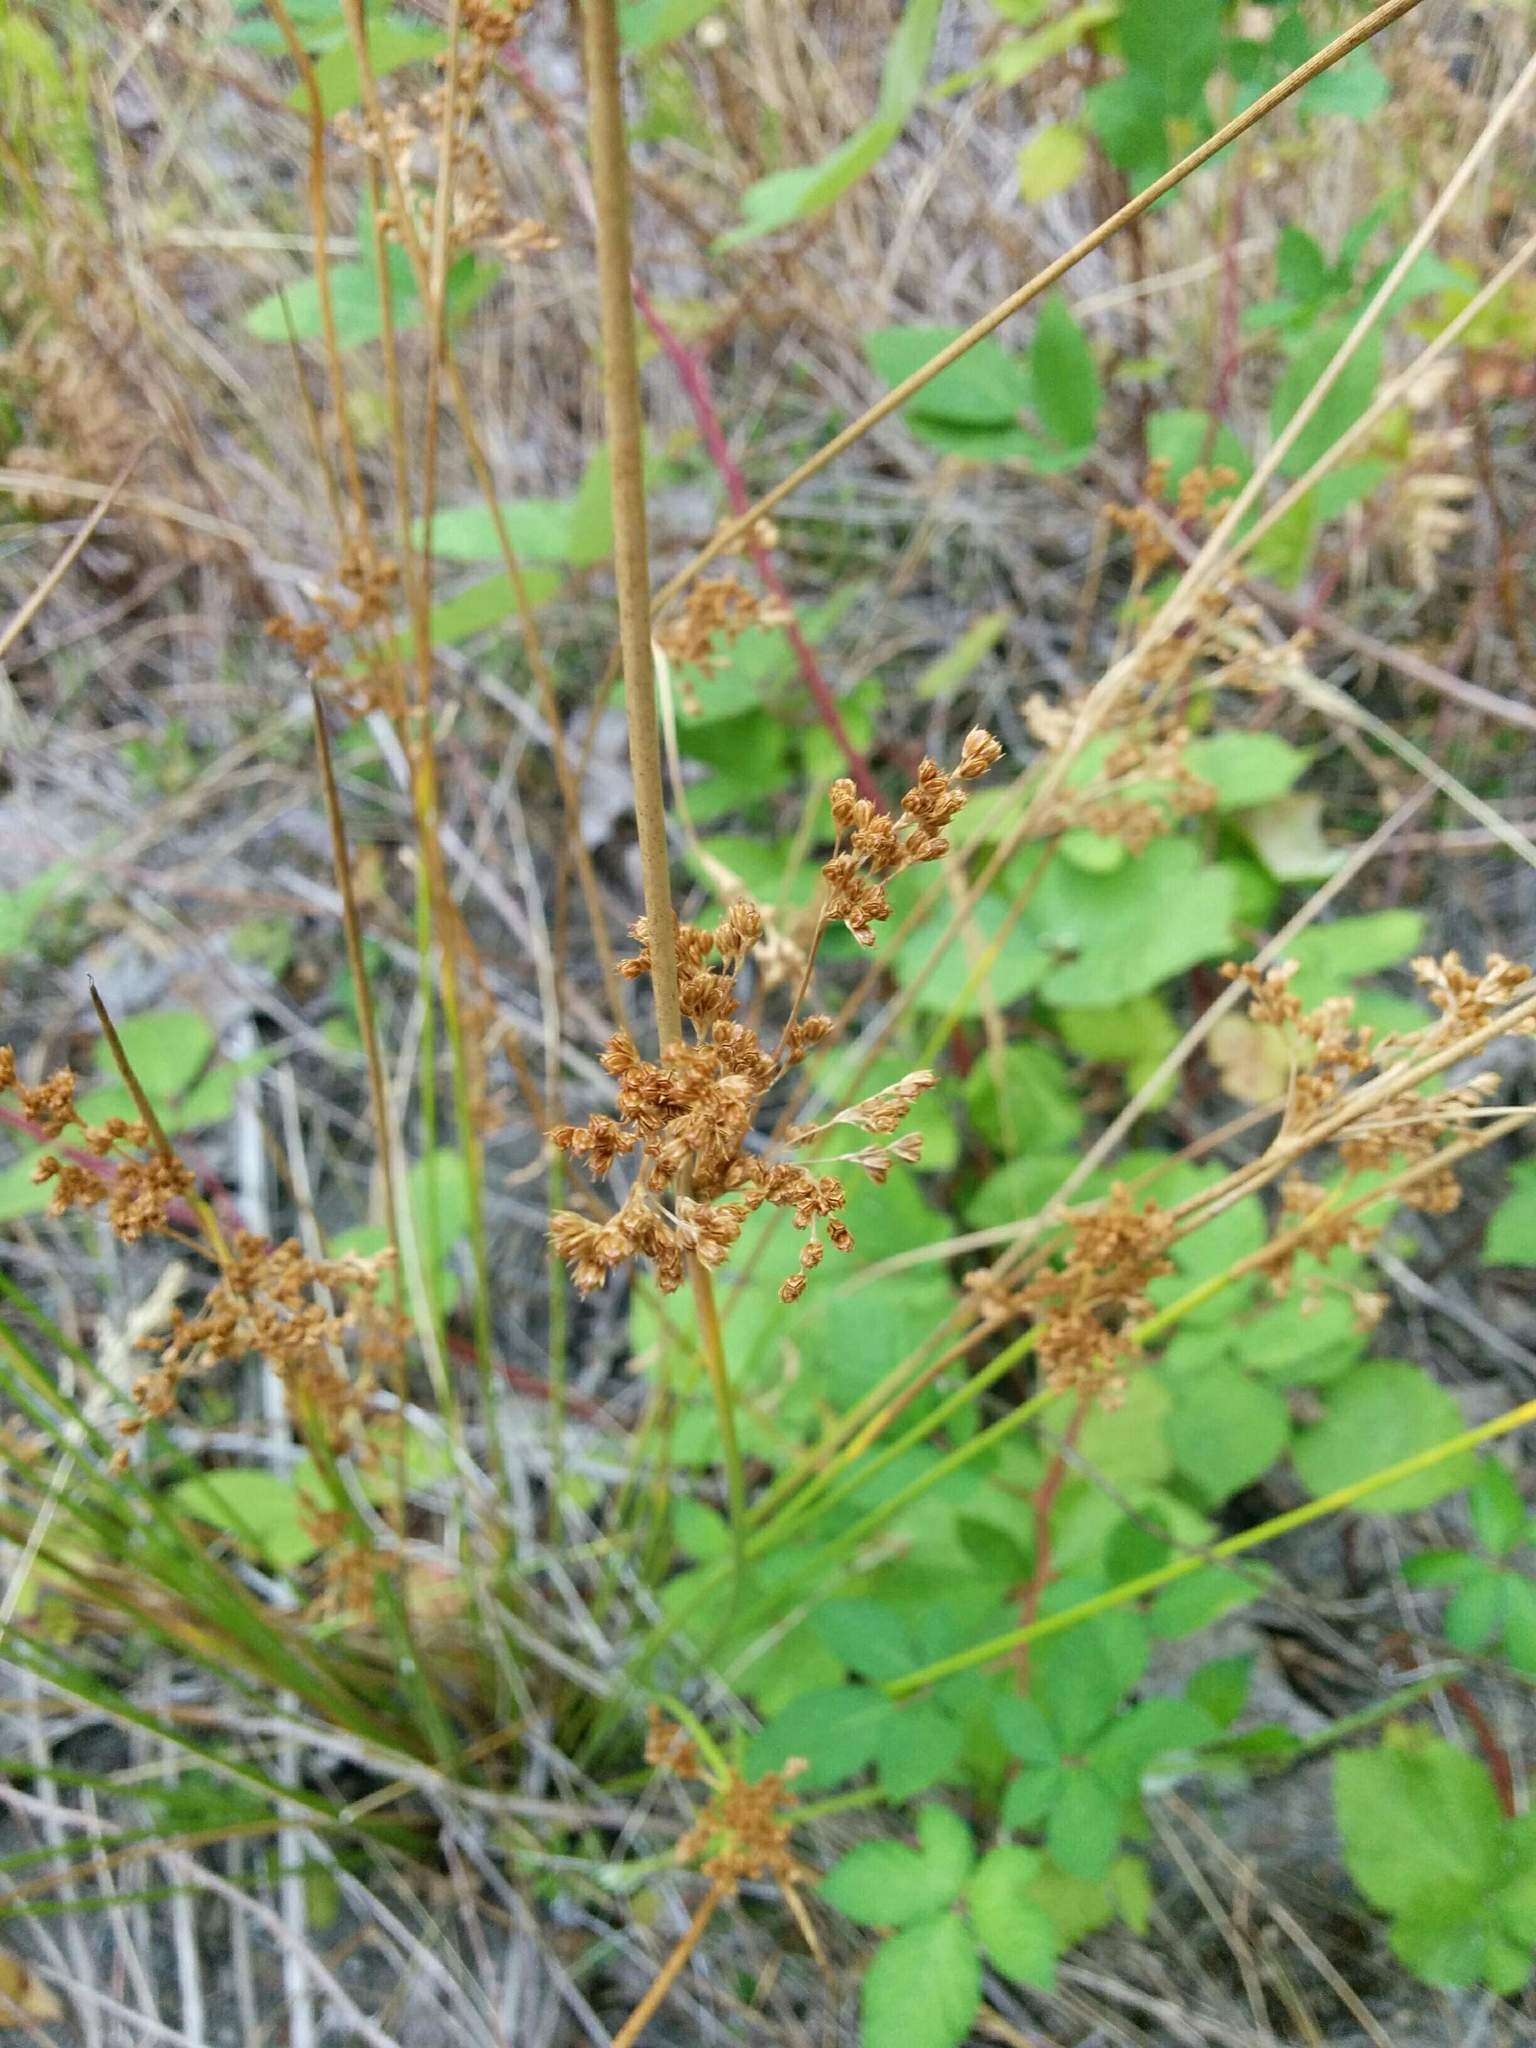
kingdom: Plantae
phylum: Tracheophyta
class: Liliopsida
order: Poales
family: Juncaceae
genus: Juncus
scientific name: Juncus effusus
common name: Soft rush
